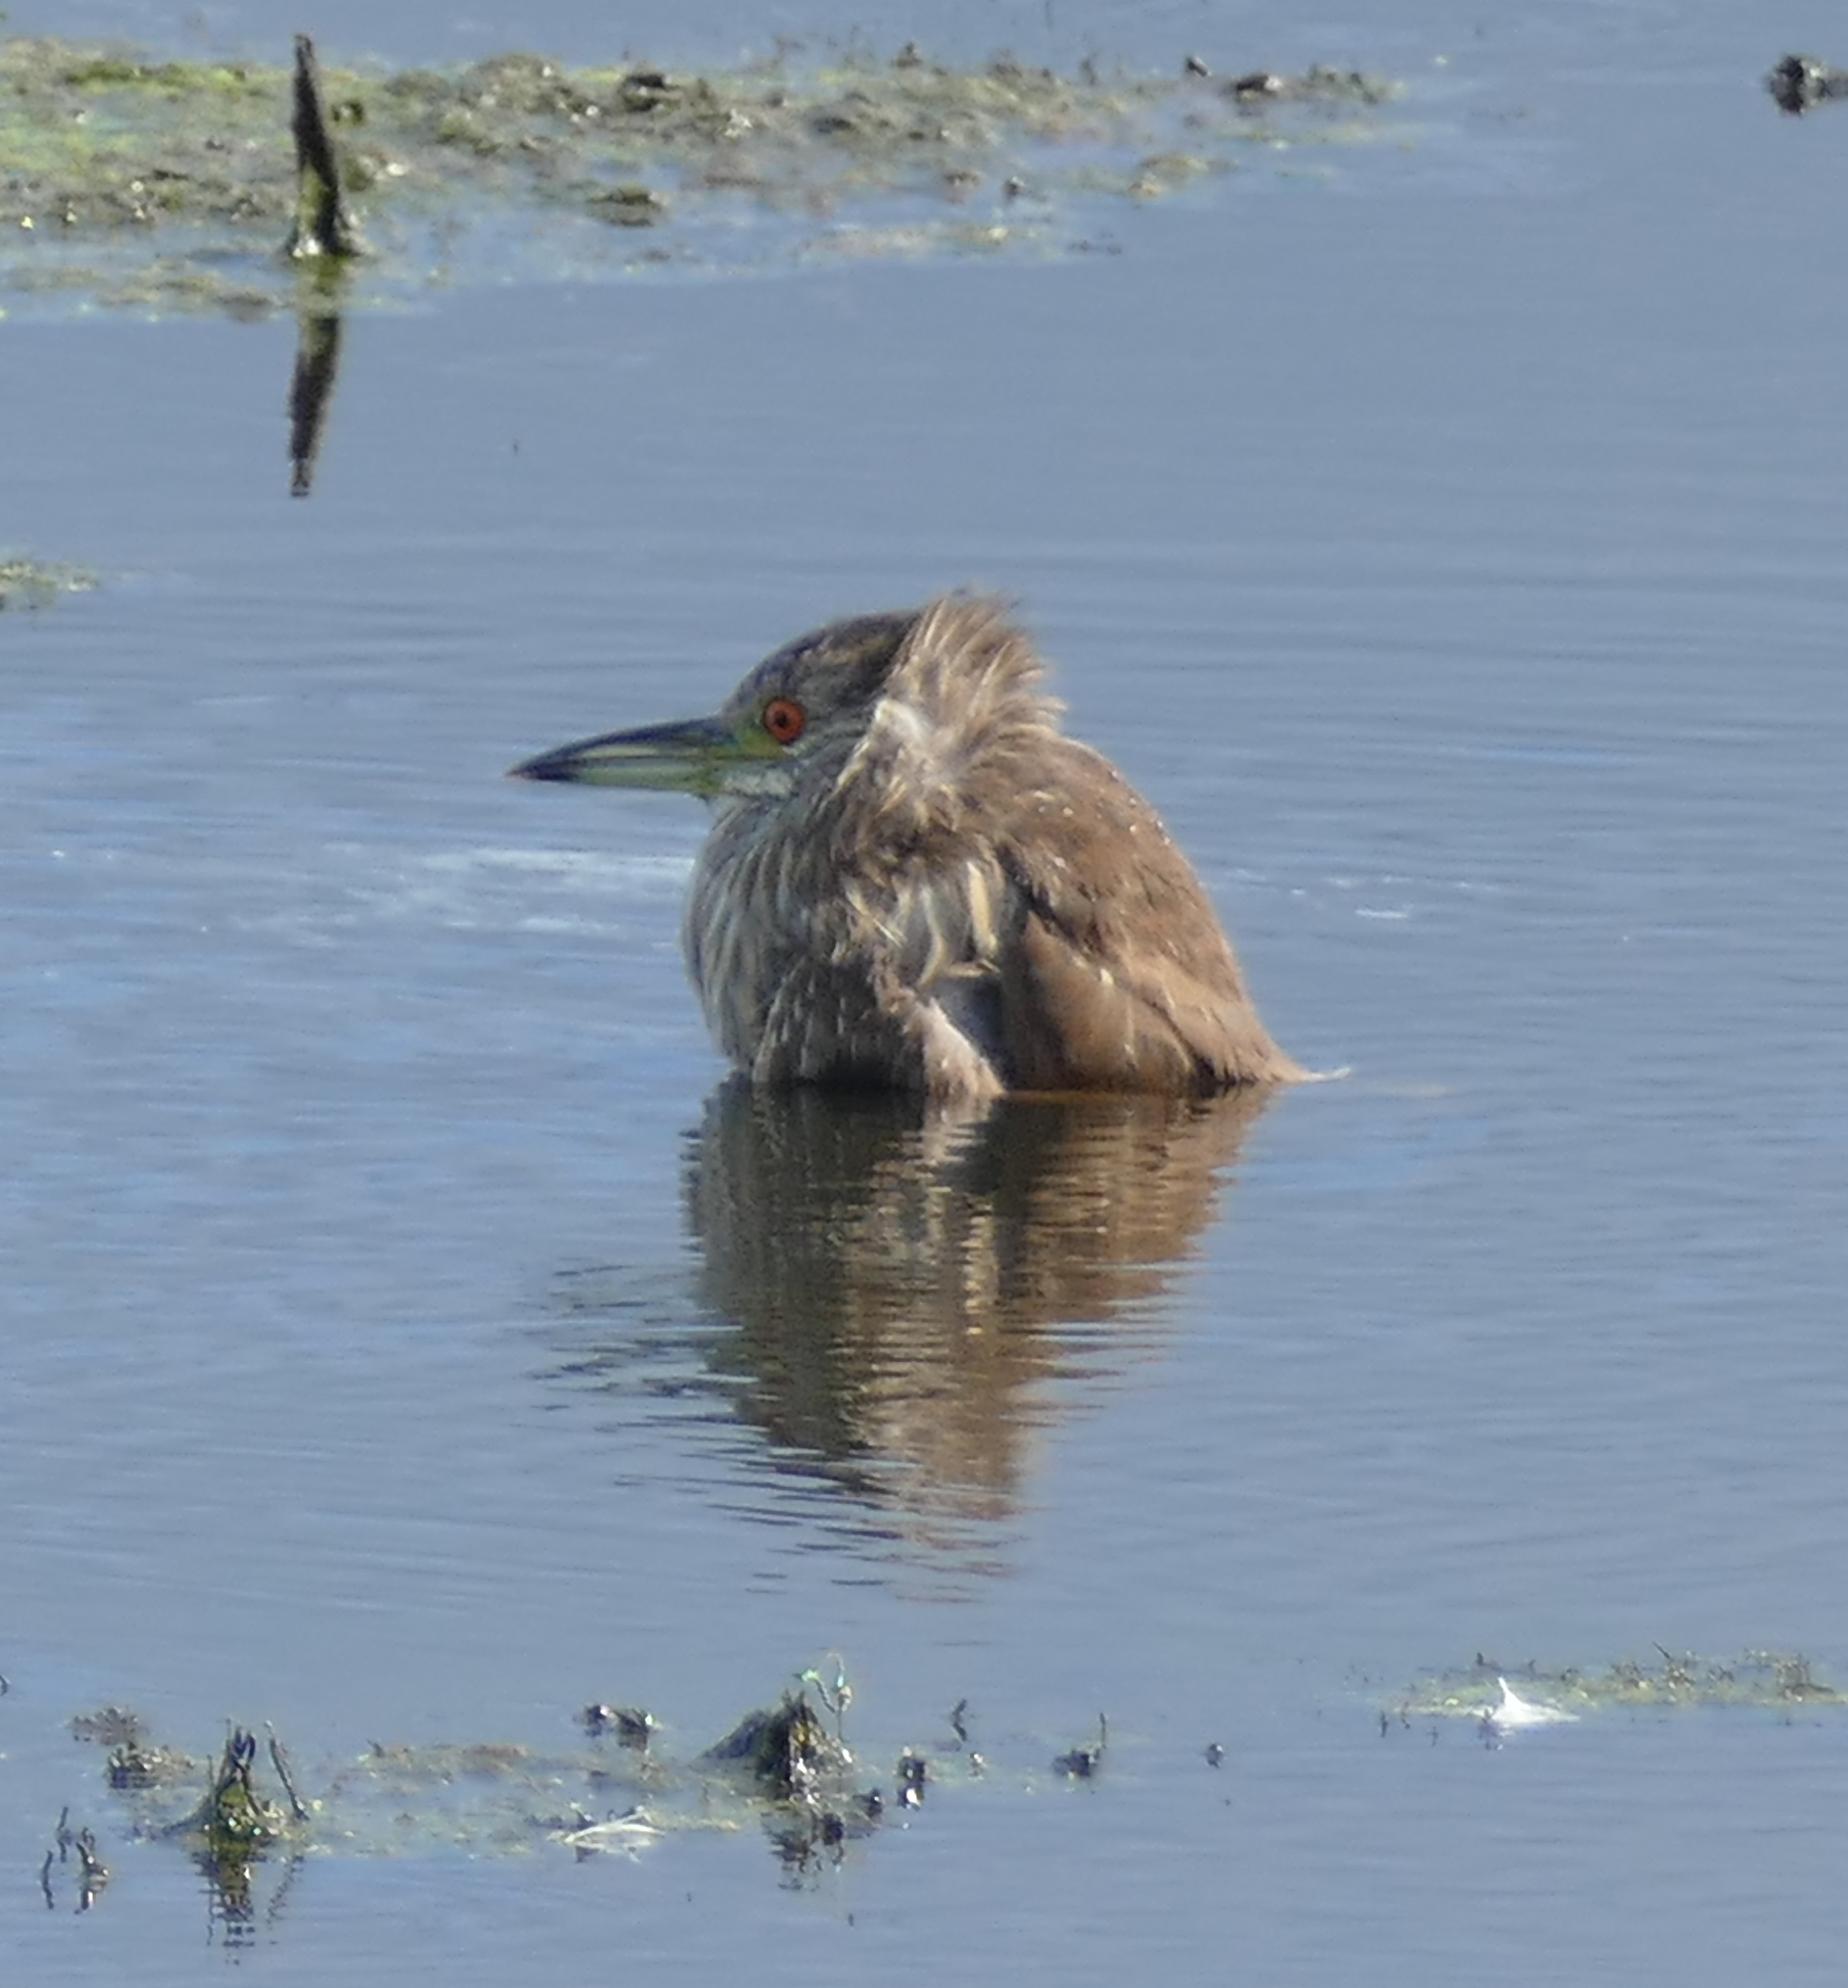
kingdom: Animalia
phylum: Chordata
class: Aves
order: Pelecaniformes
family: Ardeidae
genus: Nycticorax
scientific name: Nycticorax nycticorax
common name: Black-crowned night heron
